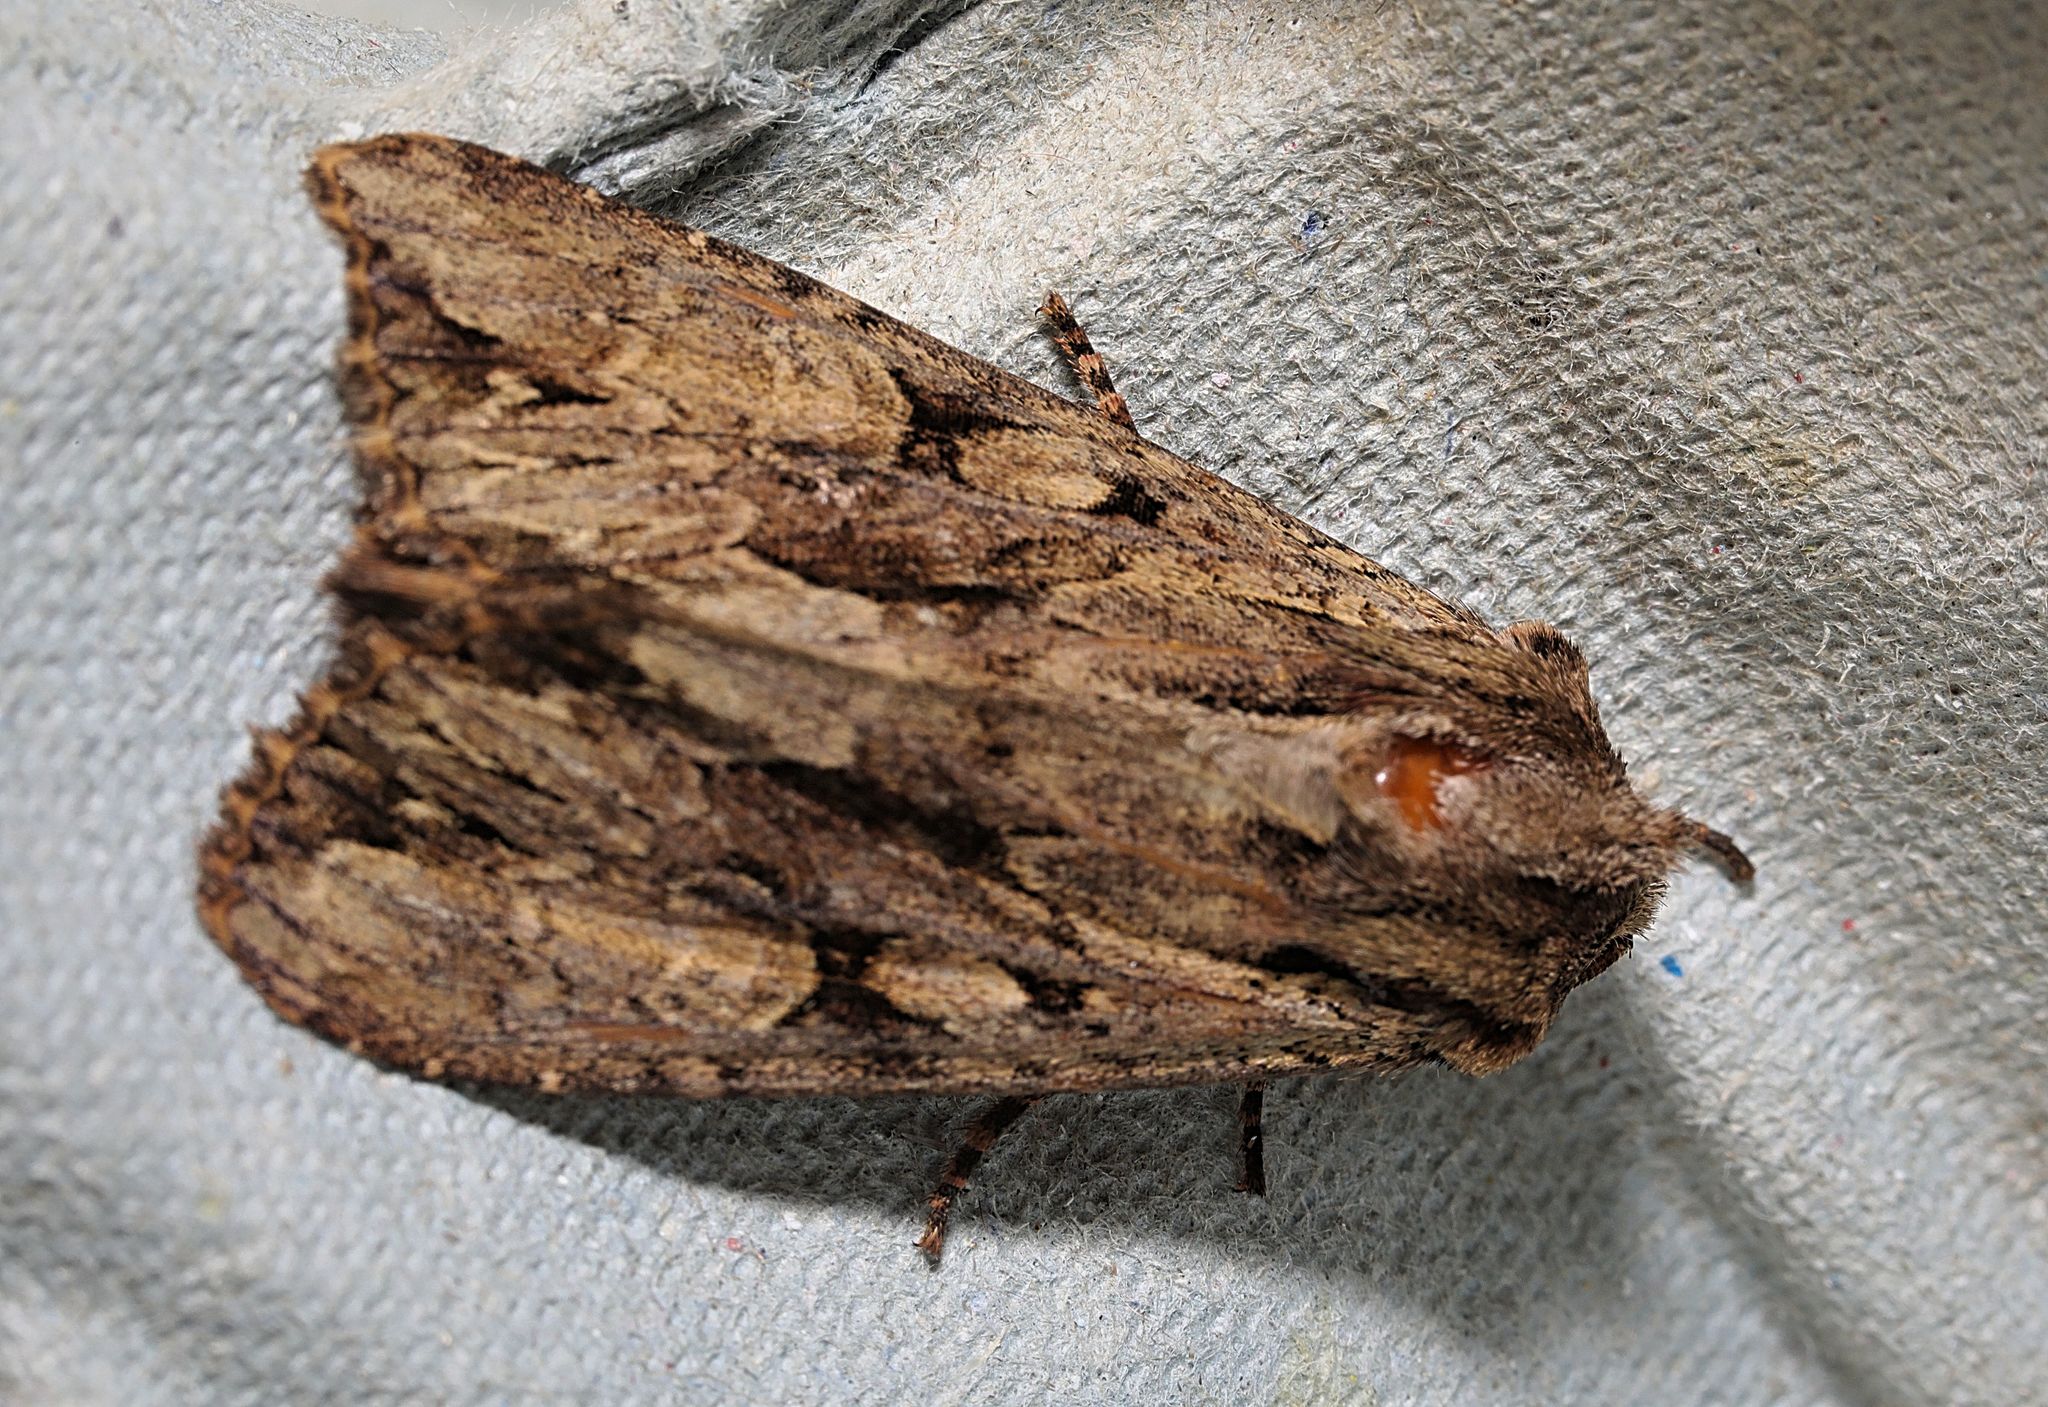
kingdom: Animalia
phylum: Arthropoda
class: Insecta
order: Lepidoptera
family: Noctuidae
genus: Apamea
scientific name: Apamea monoglypha
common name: Dark arches
